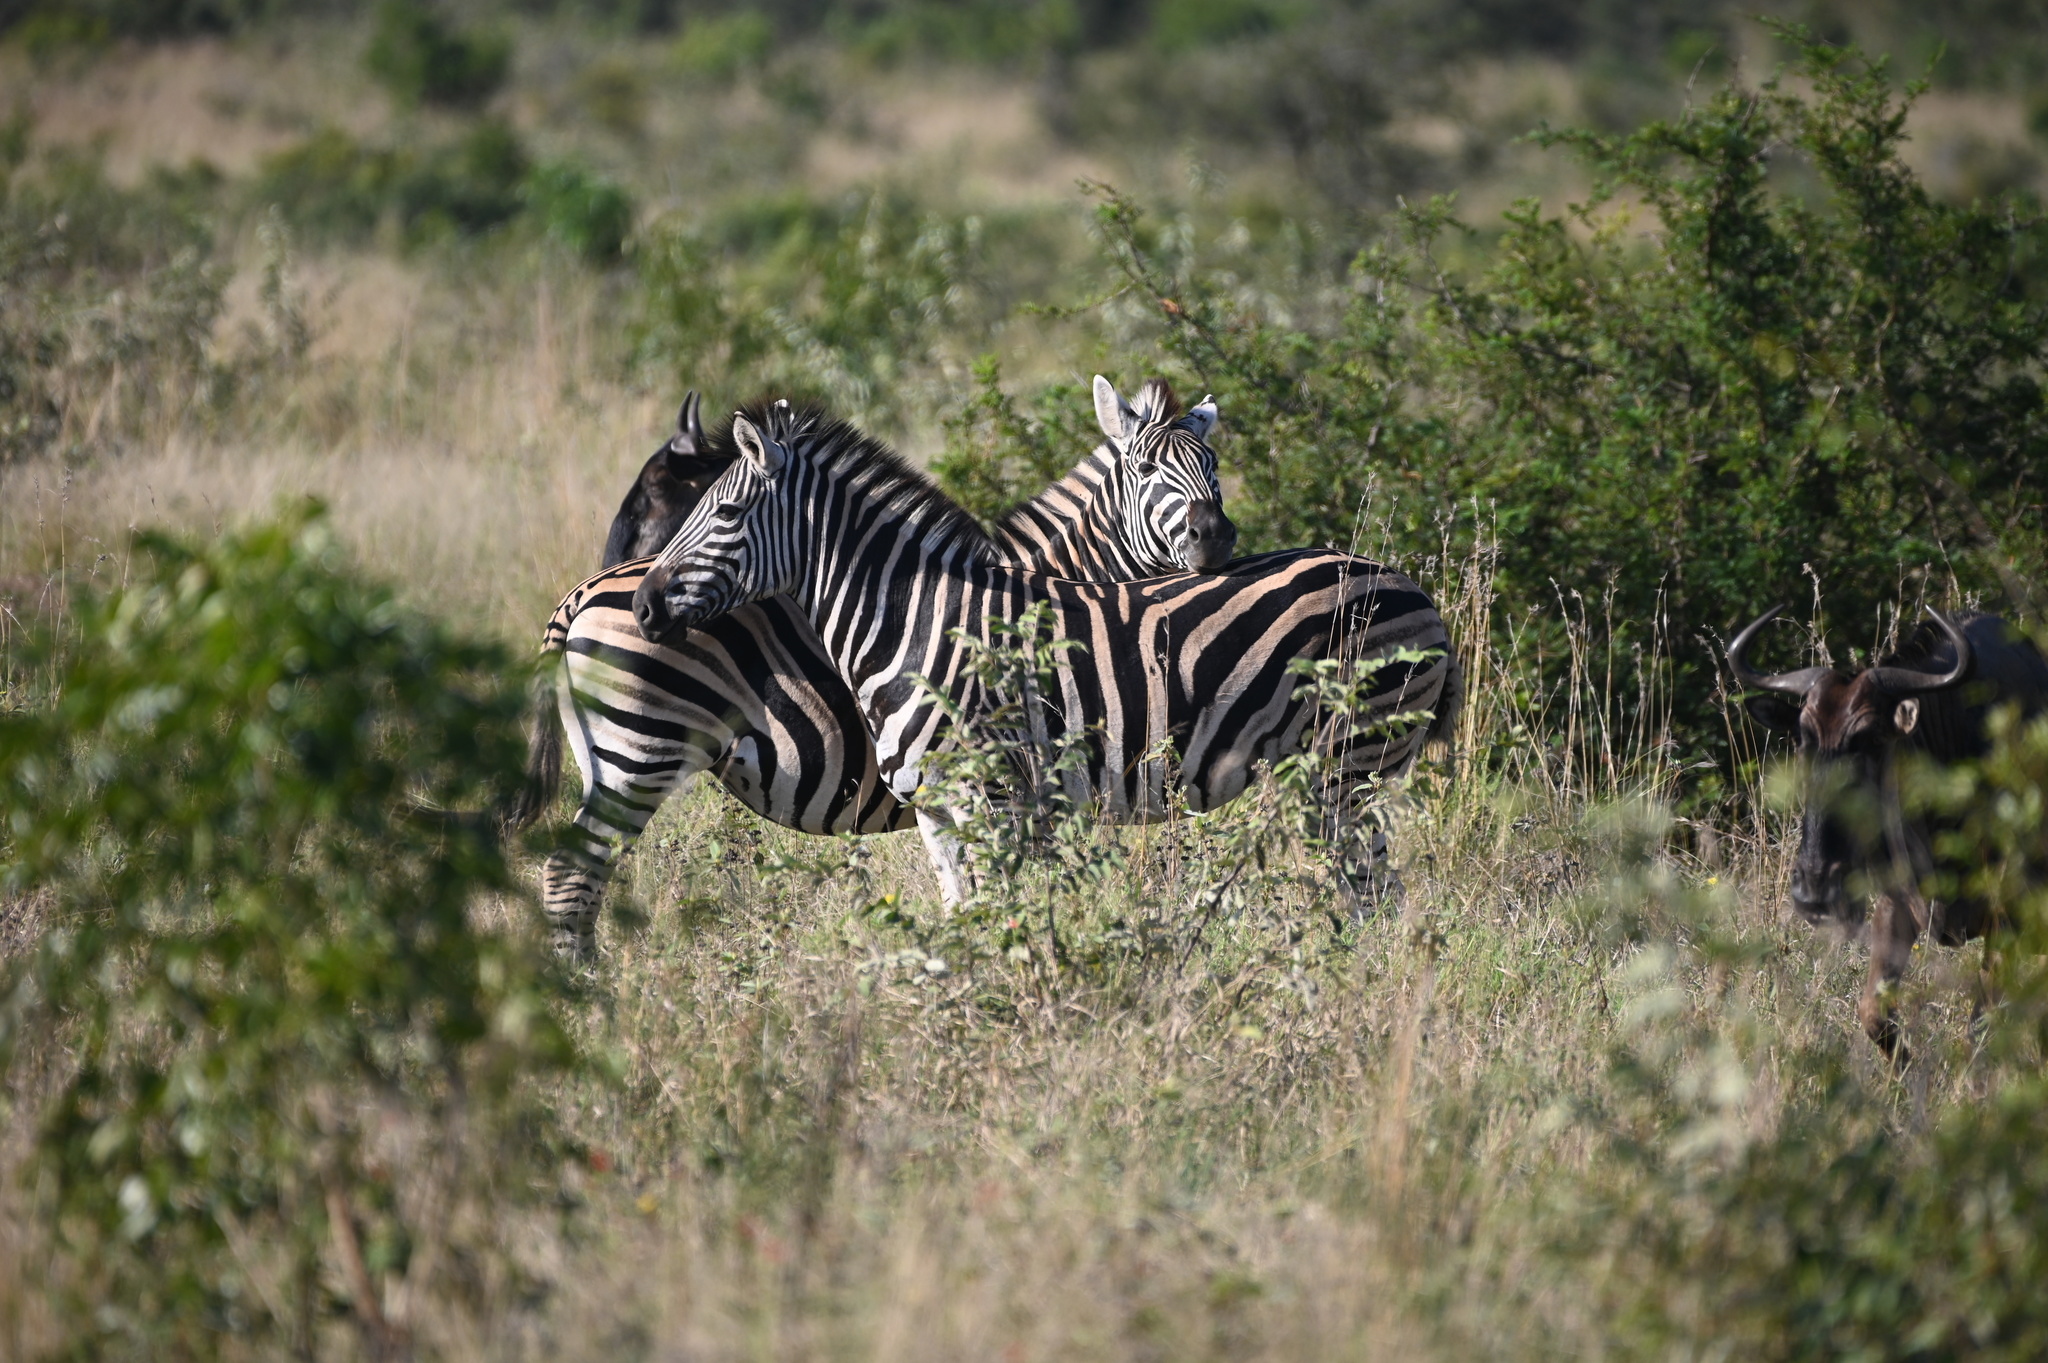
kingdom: Animalia
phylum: Chordata
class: Mammalia
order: Perissodactyla
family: Equidae
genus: Equus
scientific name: Equus quagga
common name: Plains zebra
